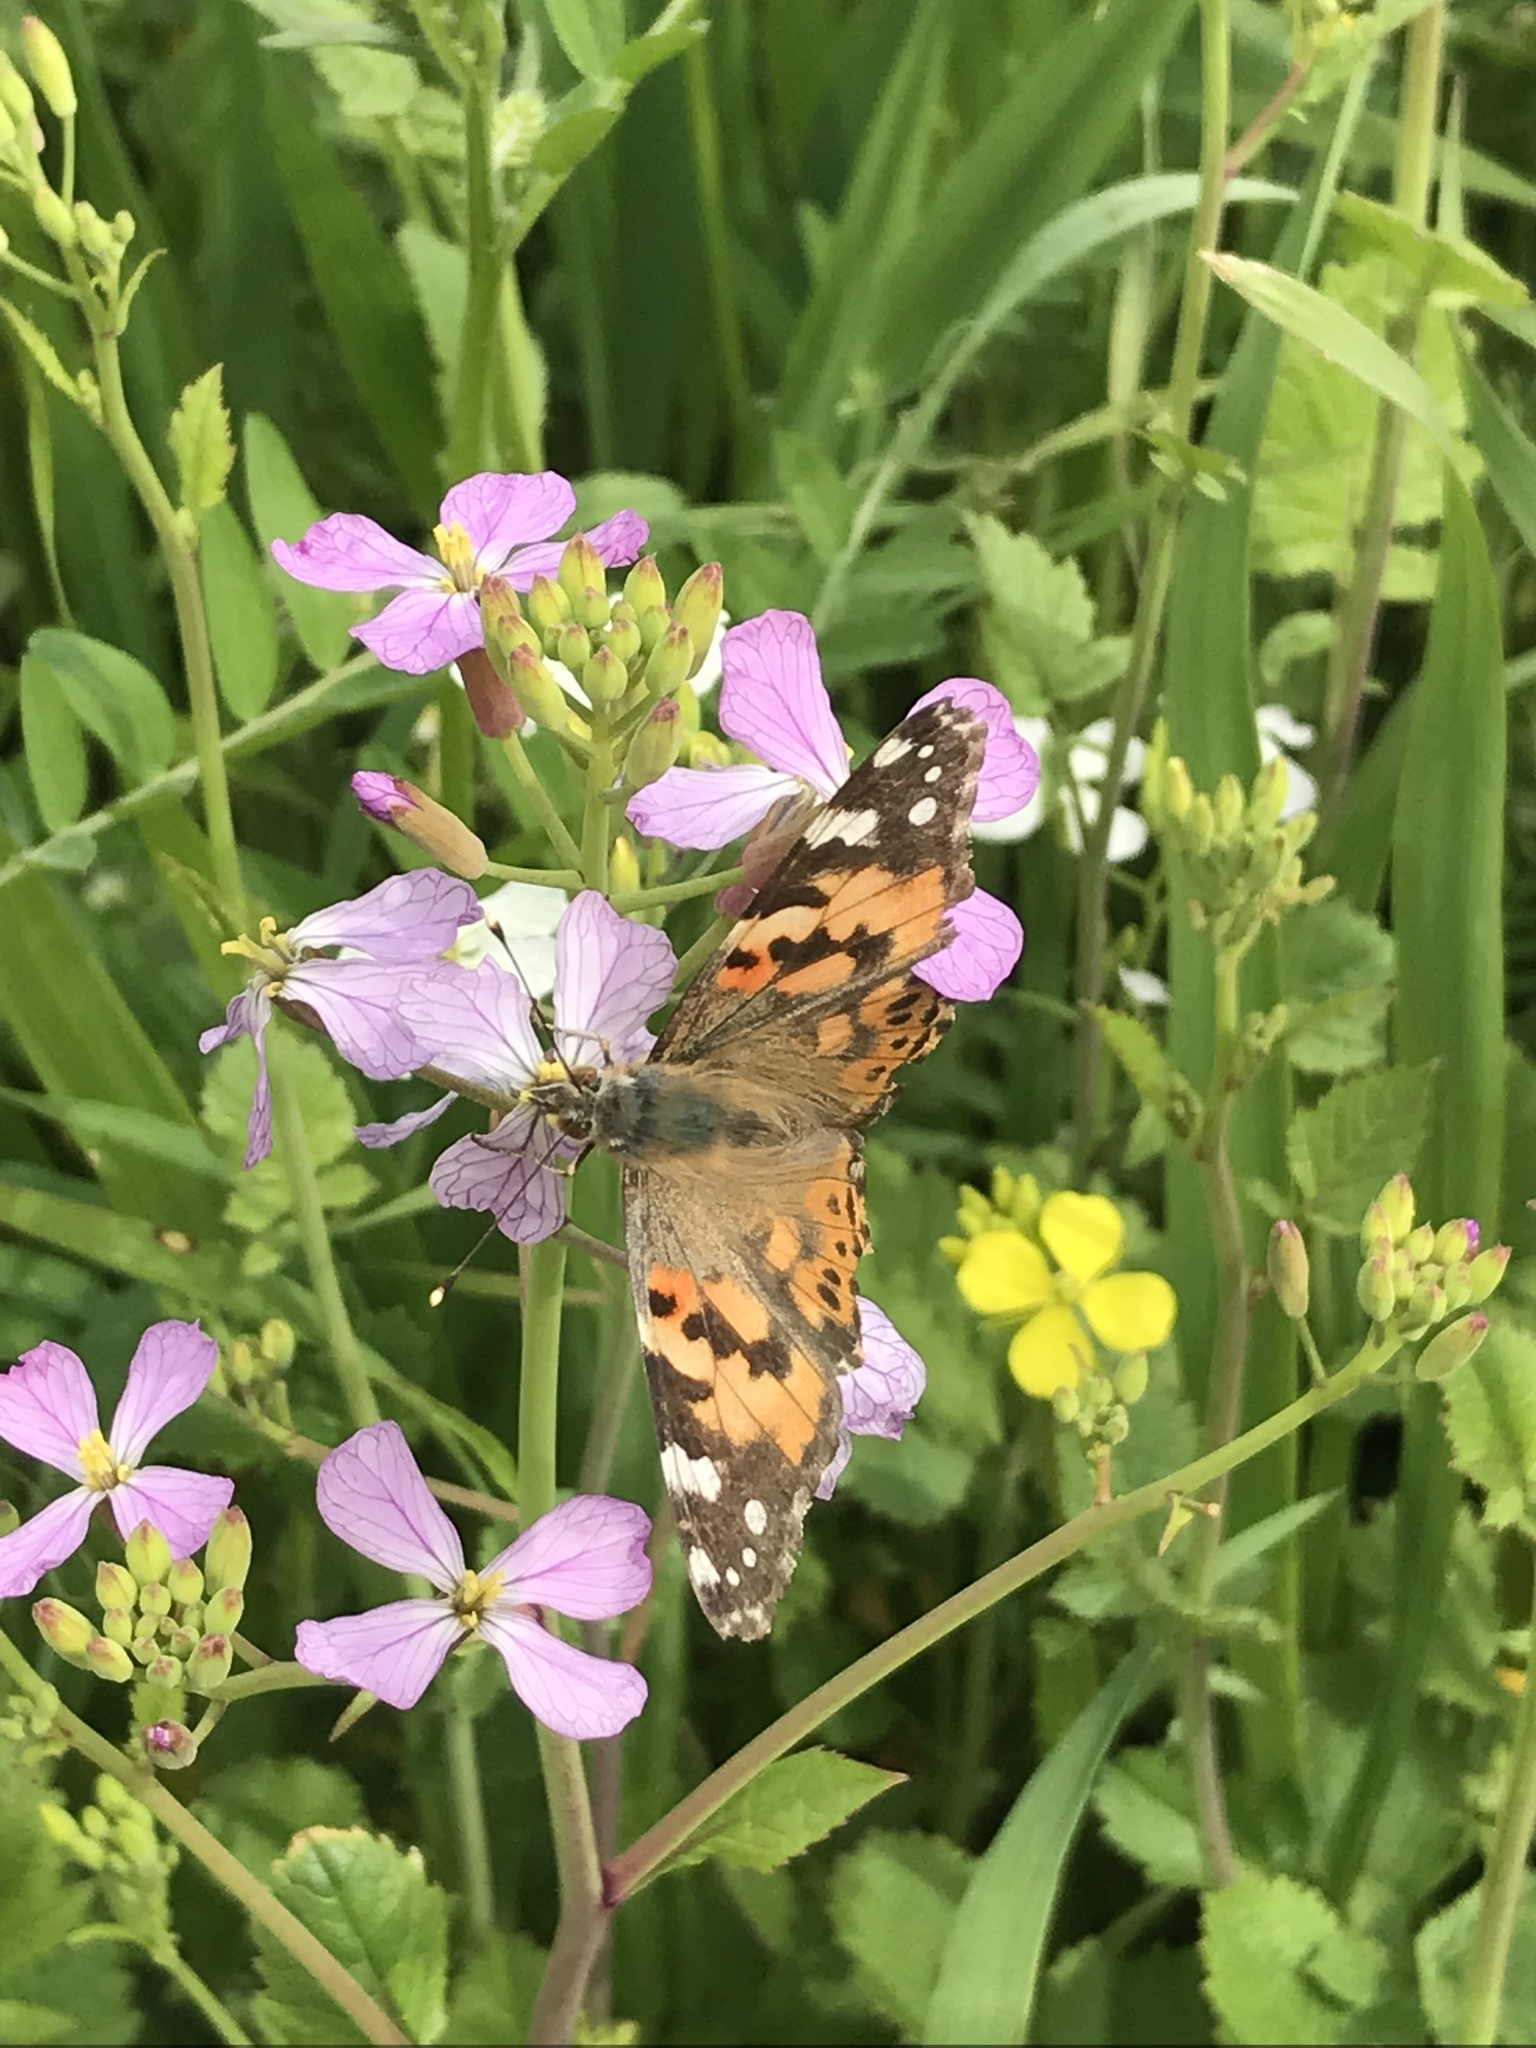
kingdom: Animalia
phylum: Arthropoda
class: Insecta
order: Lepidoptera
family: Nymphalidae
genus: Vanessa
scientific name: Vanessa cardui
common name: Painted lady
